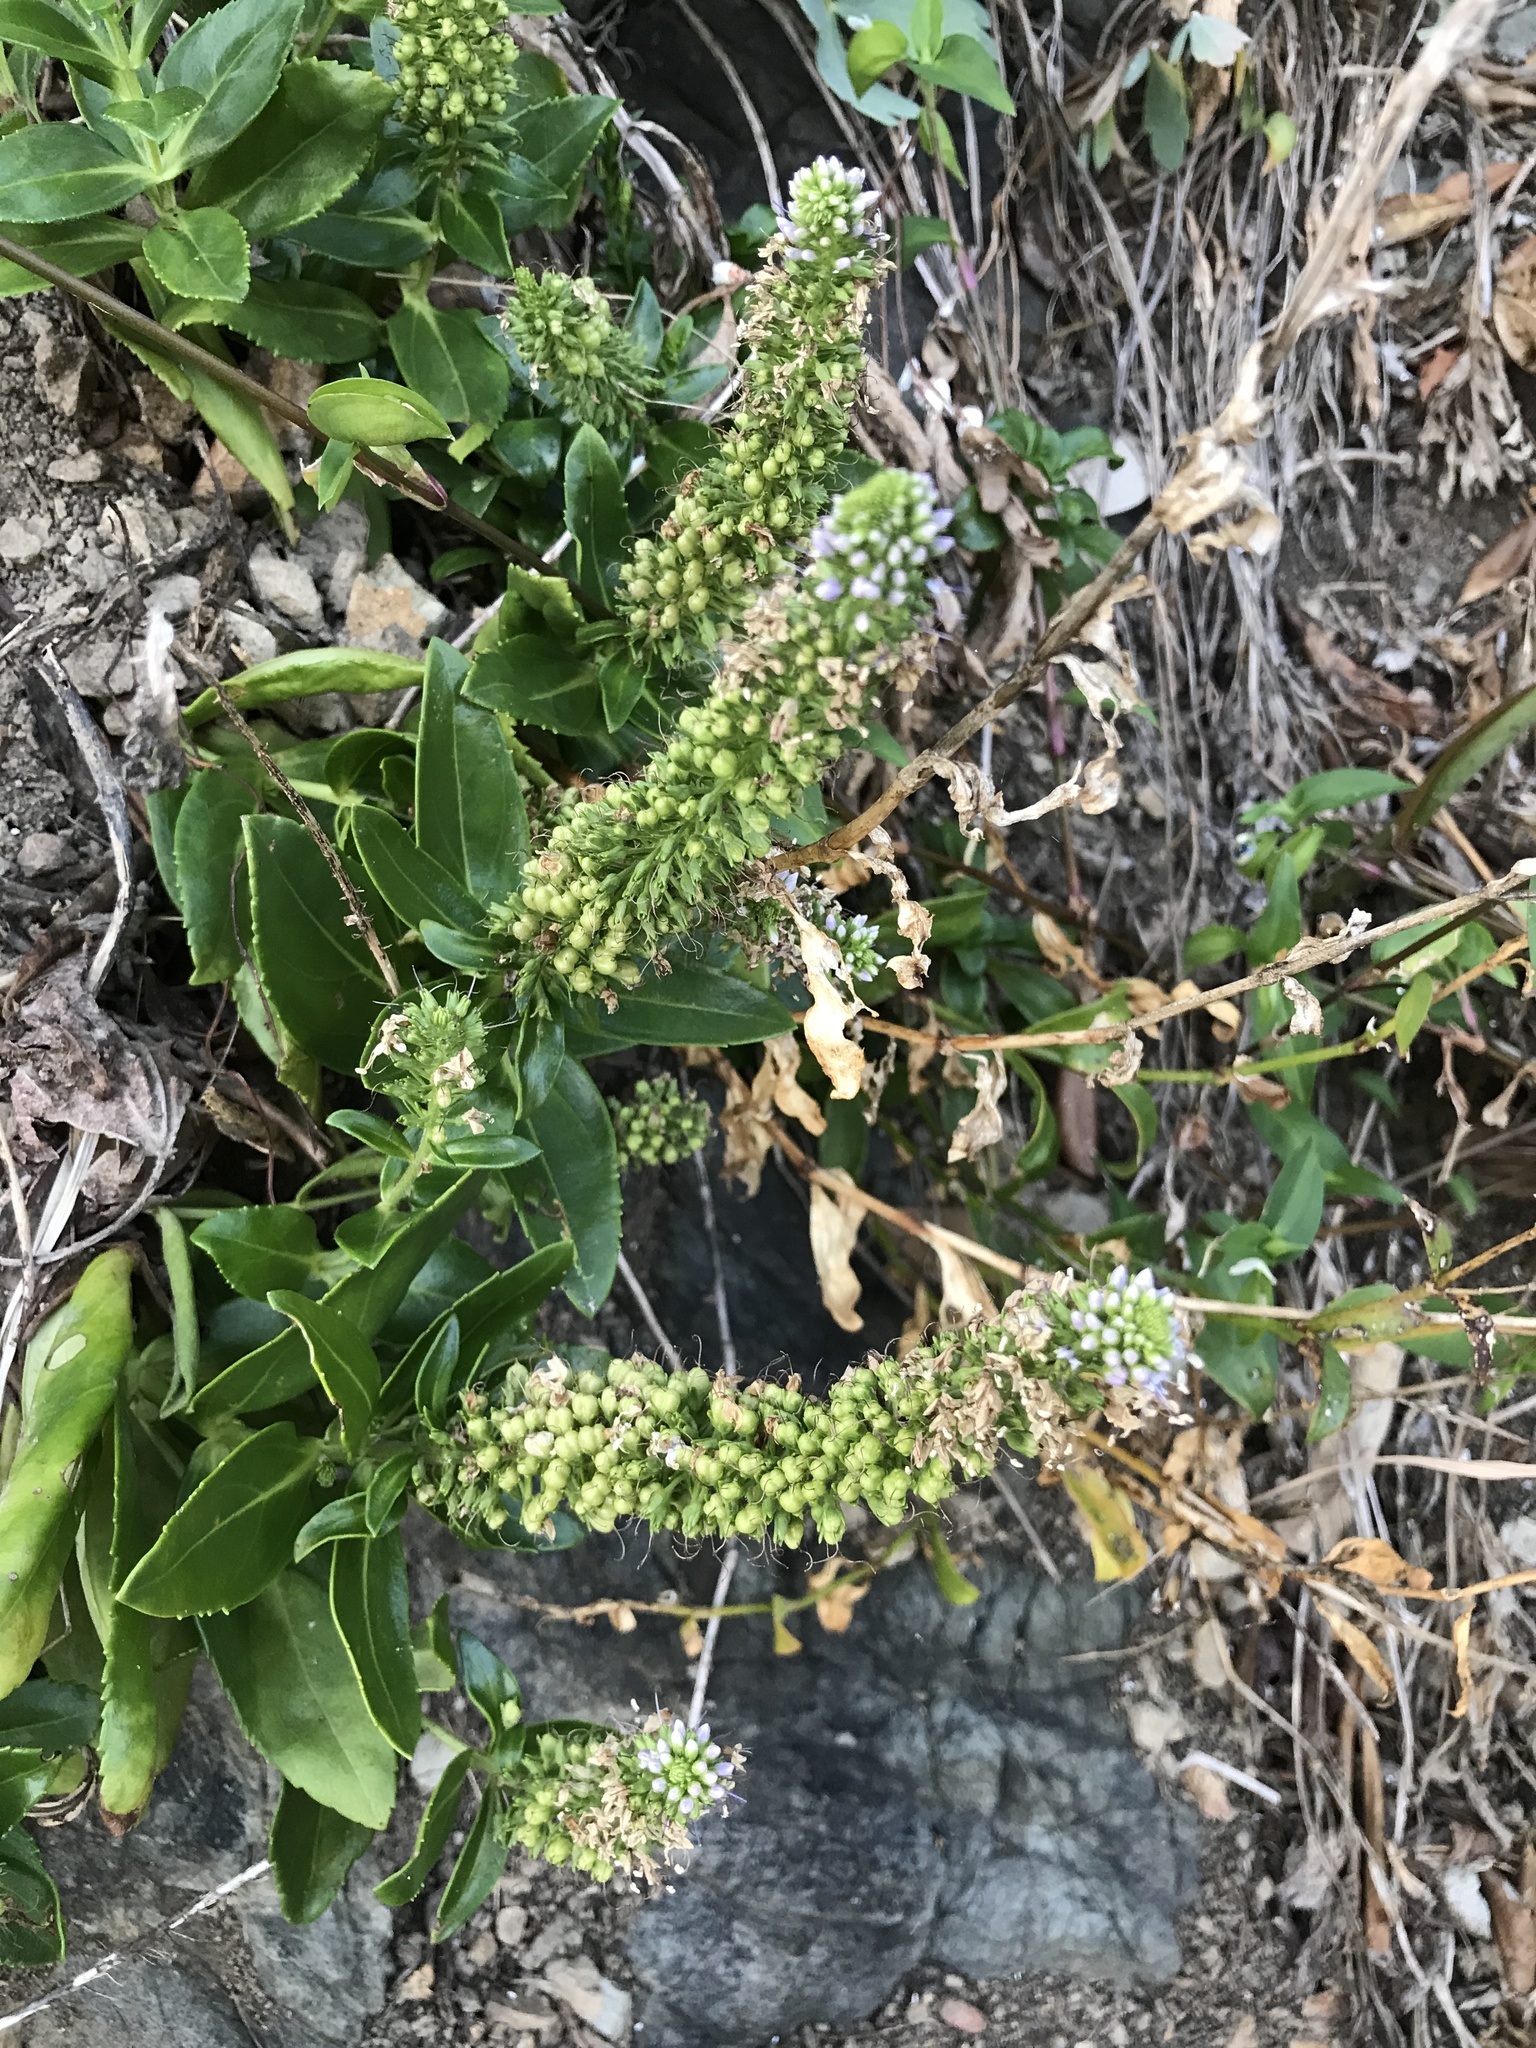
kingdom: Plantae
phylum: Tracheophyta
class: Magnoliopsida
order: Lamiales
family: Plantaginaceae
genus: Veronica
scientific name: Veronica sieboldiana
